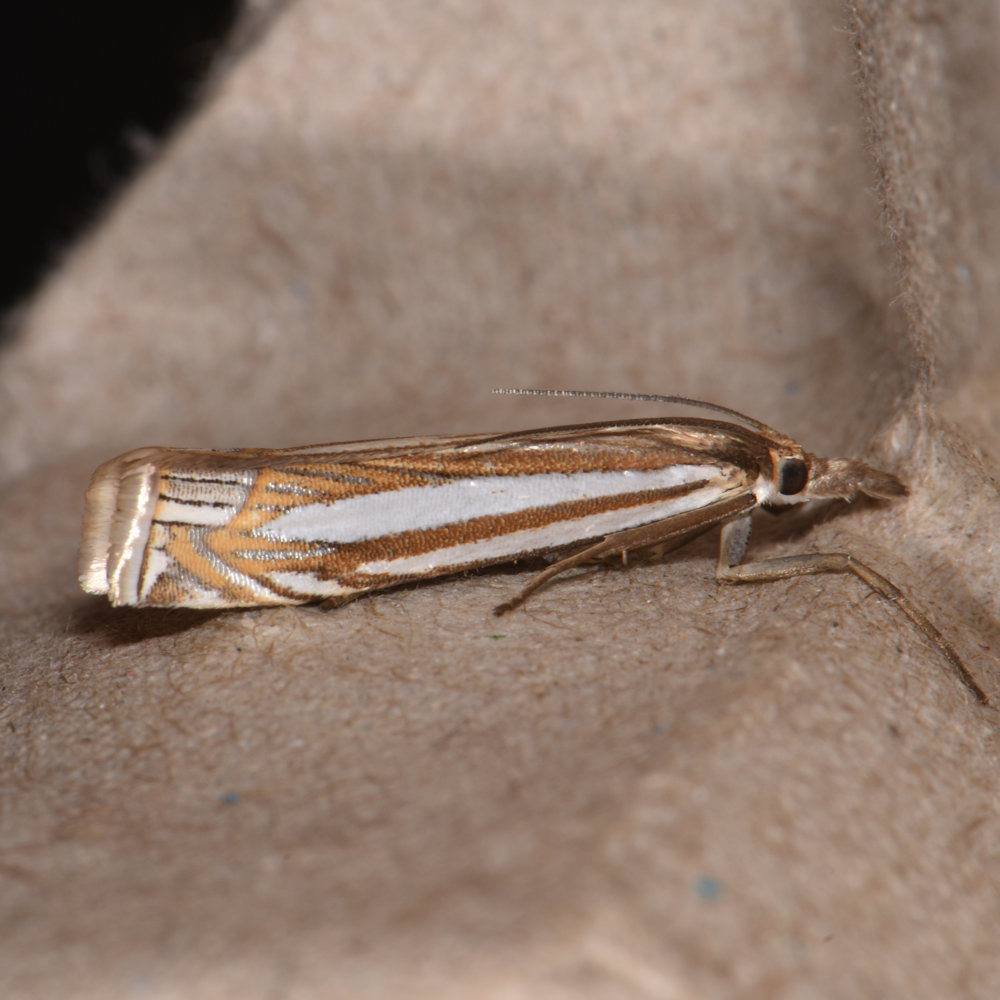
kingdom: Animalia
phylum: Arthropoda
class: Insecta
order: Lepidoptera
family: Crambidae
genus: Crambus
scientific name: Crambus laqueatellus
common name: Eastern grass-veneer
